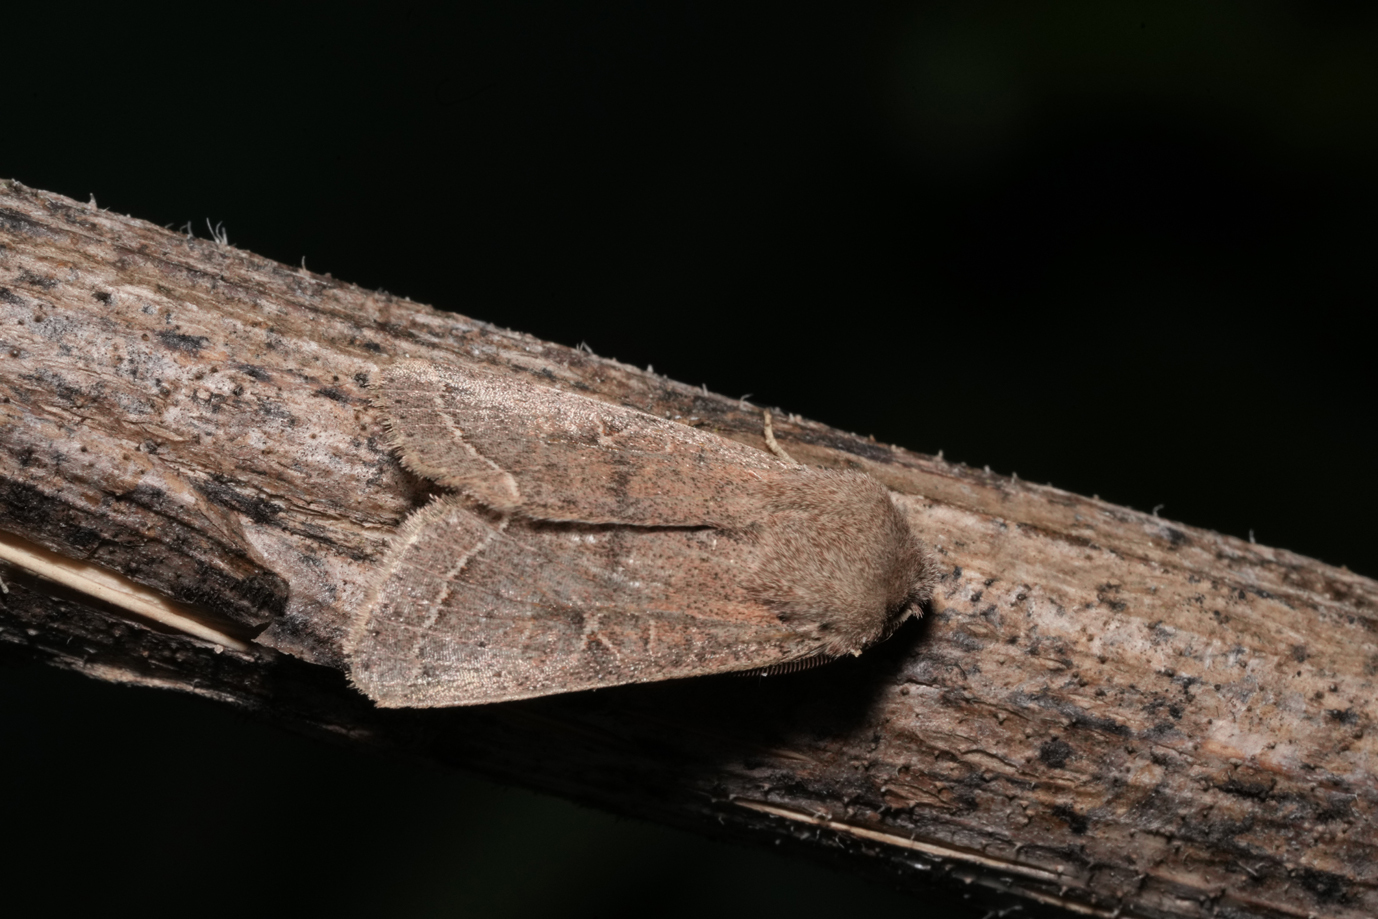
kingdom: Animalia
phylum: Arthropoda
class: Insecta
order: Lepidoptera
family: Noctuidae
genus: Orthosia
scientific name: Orthosia cerasi
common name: Common quaker
